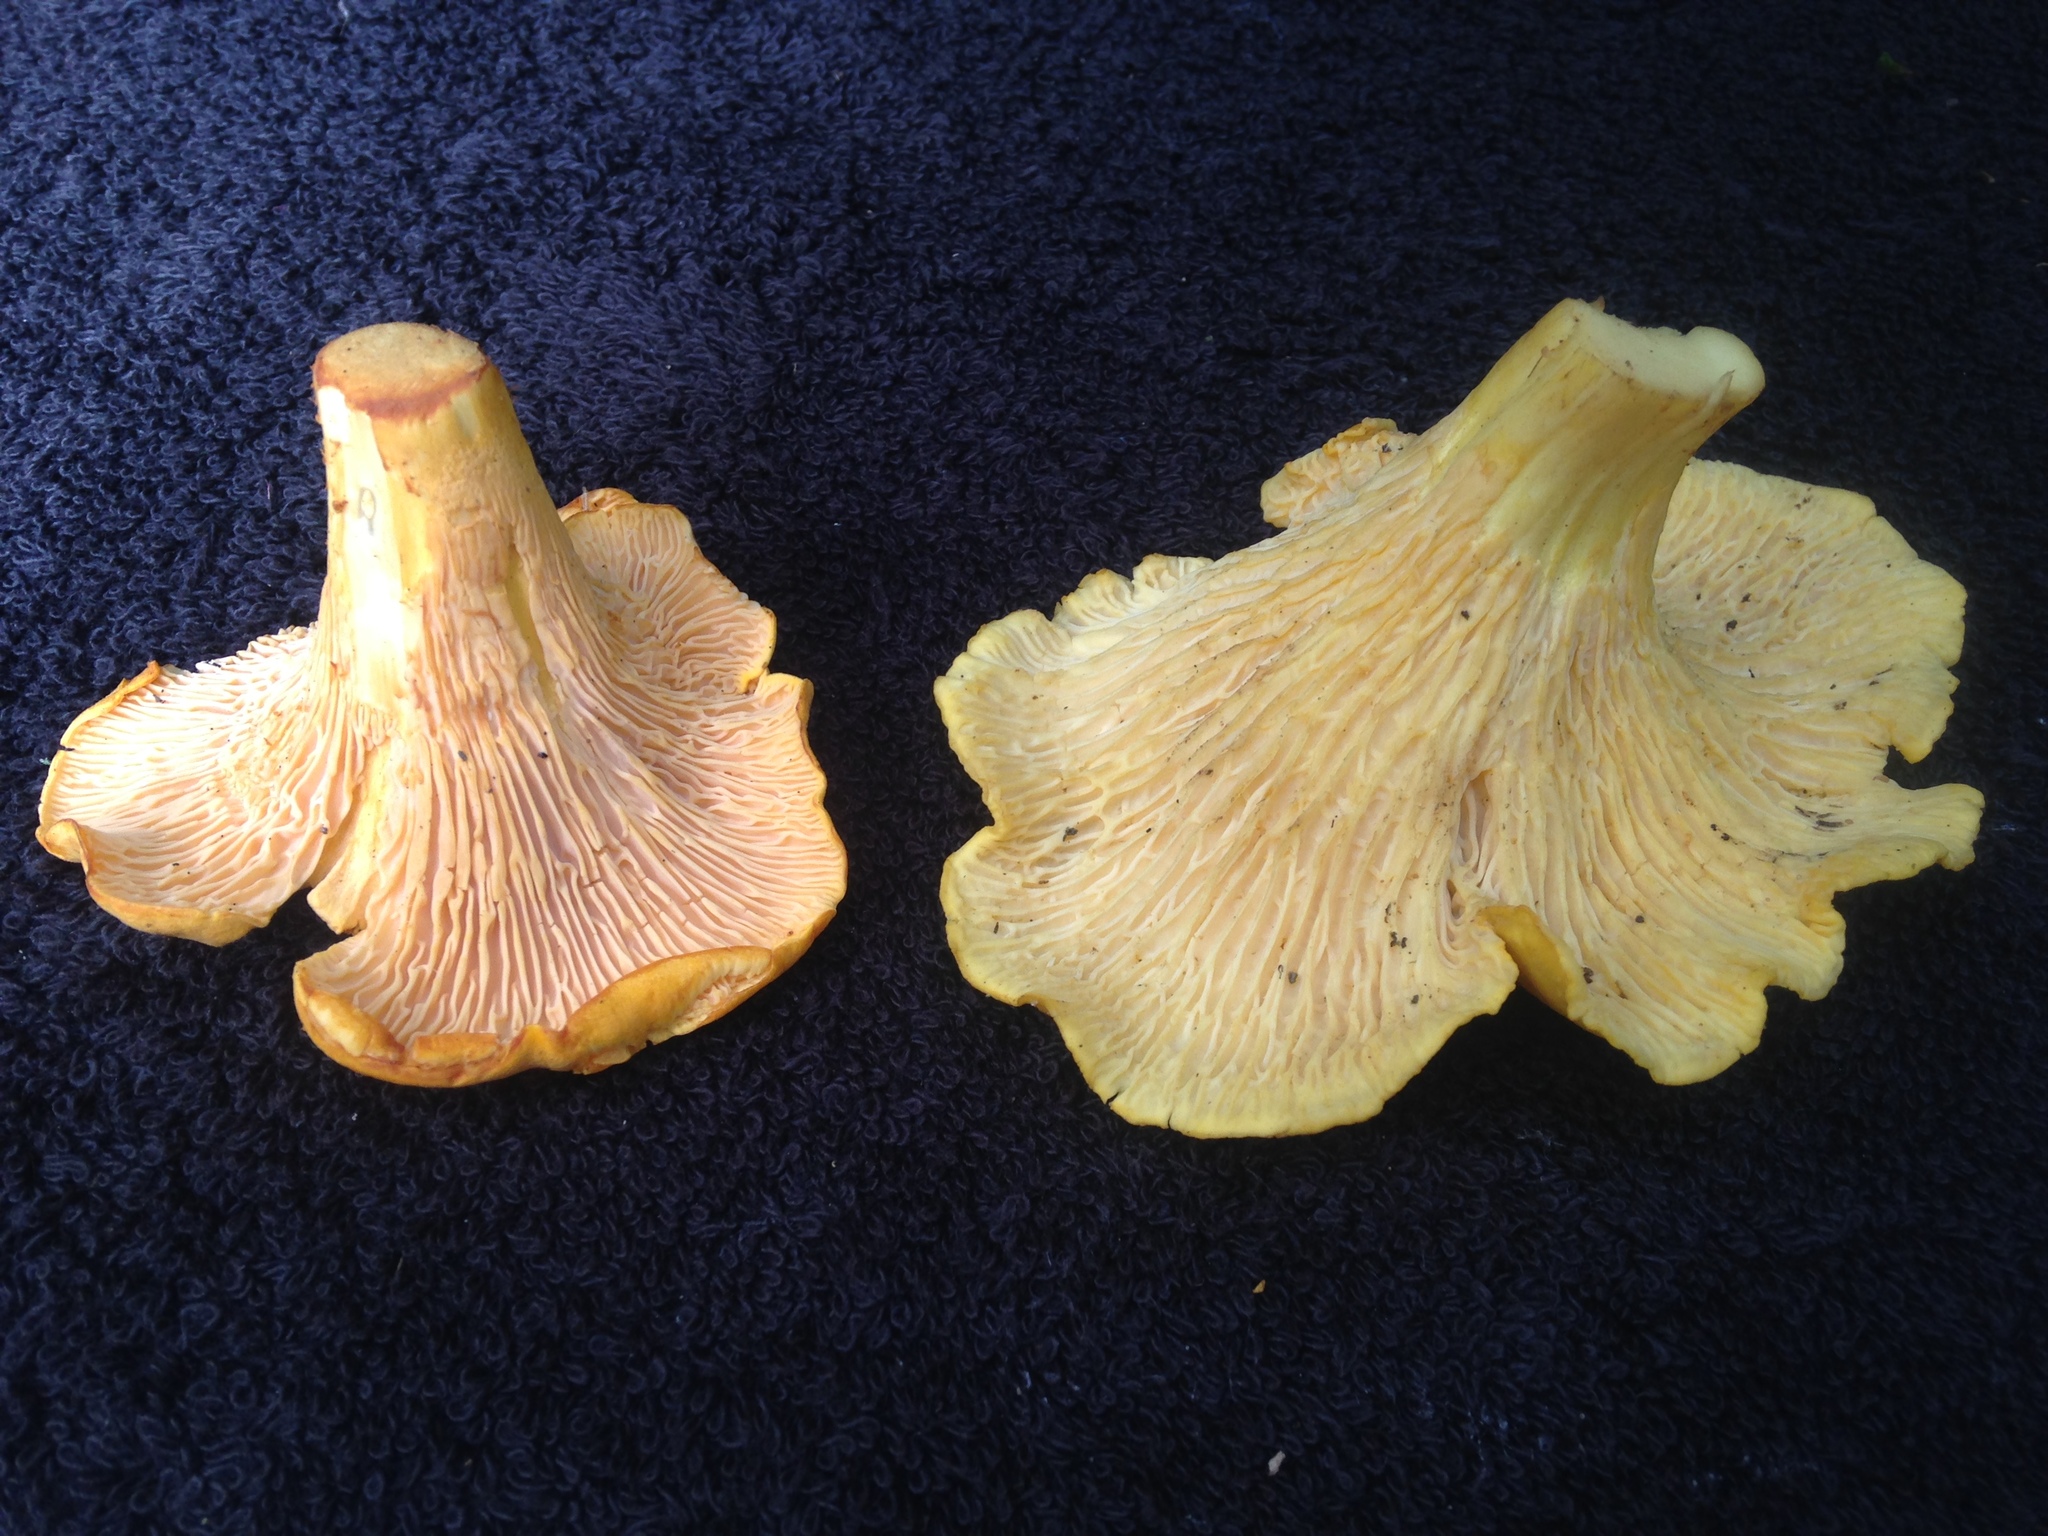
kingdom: Fungi
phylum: Basidiomycota
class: Agaricomycetes
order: Cantharellales
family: Hydnaceae
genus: Cantharellus
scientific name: Cantharellus enelensis
